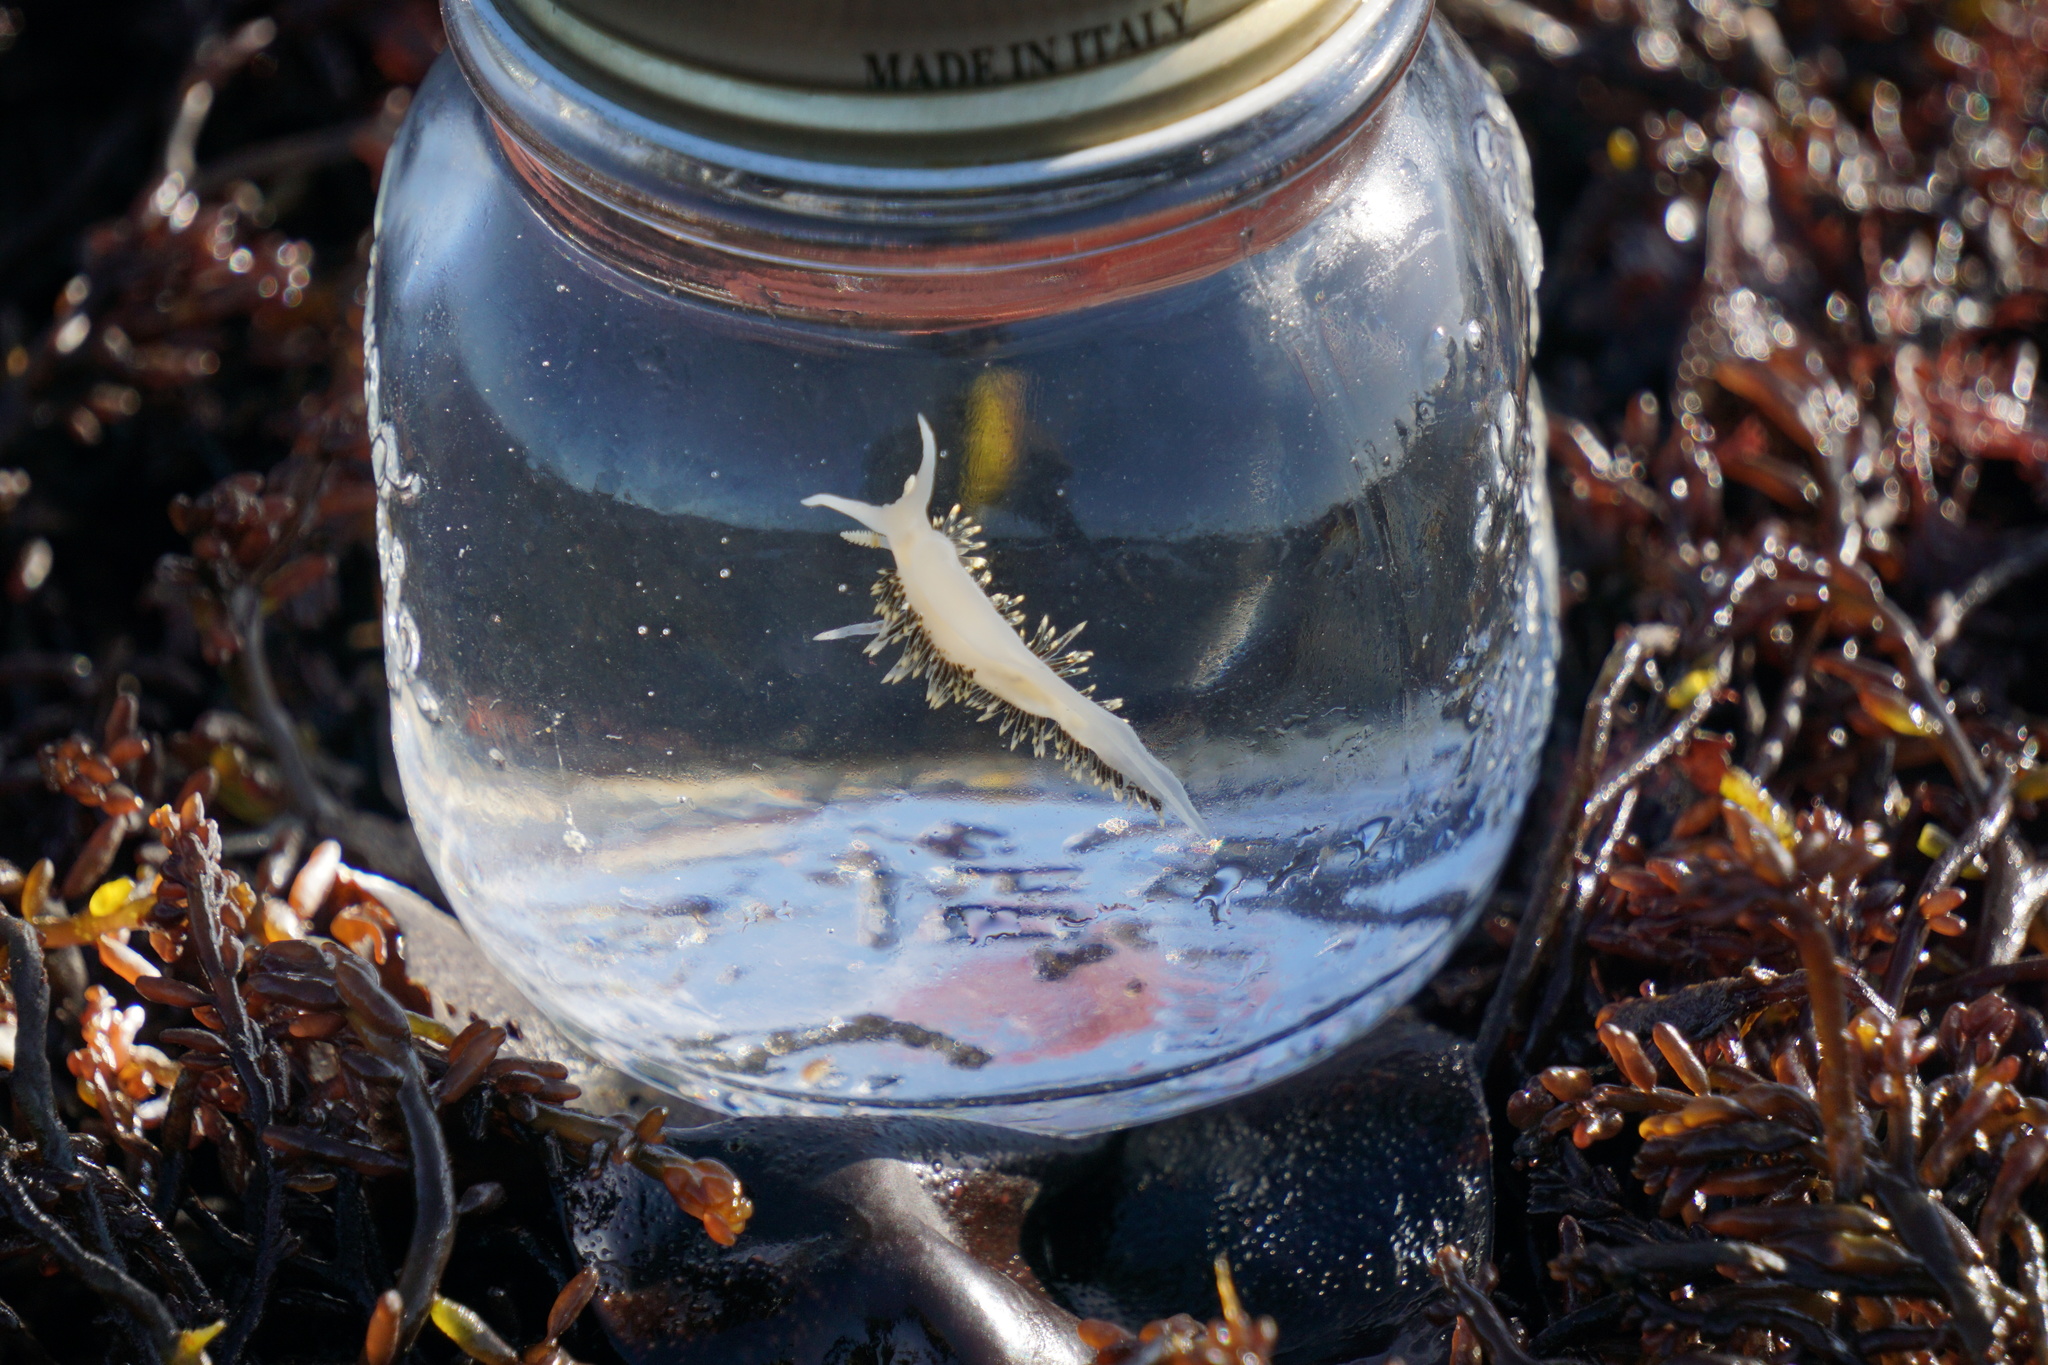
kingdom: Animalia
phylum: Mollusca
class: Gastropoda
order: Nudibranchia
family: Facelinidae
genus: Phidiana
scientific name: Phidiana hiltoni
